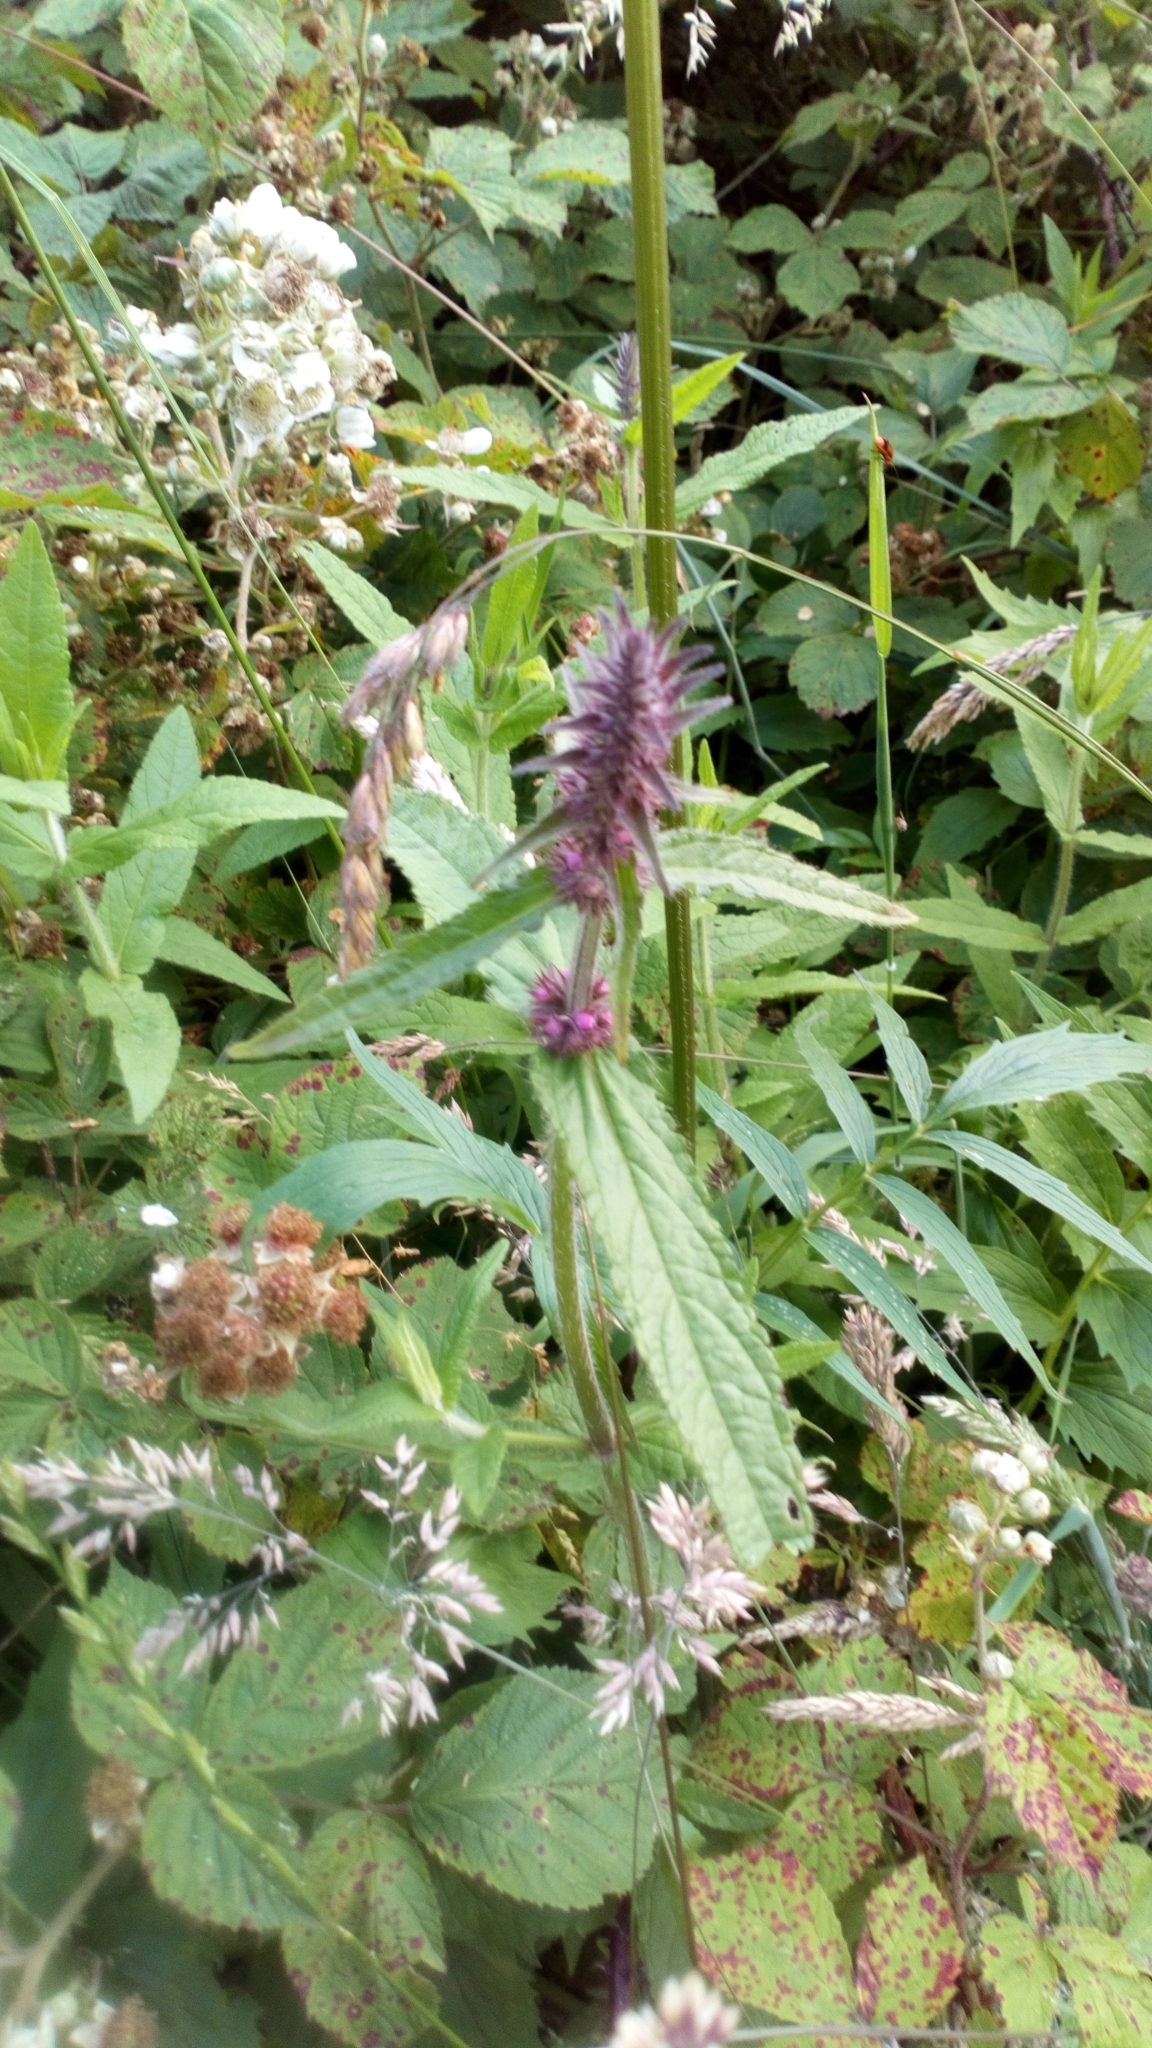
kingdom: Plantae
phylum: Tracheophyta
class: Magnoliopsida
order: Lamiales
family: Lamiaceae
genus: Stachys
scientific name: Stachys palustris
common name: Marsh woundwort
